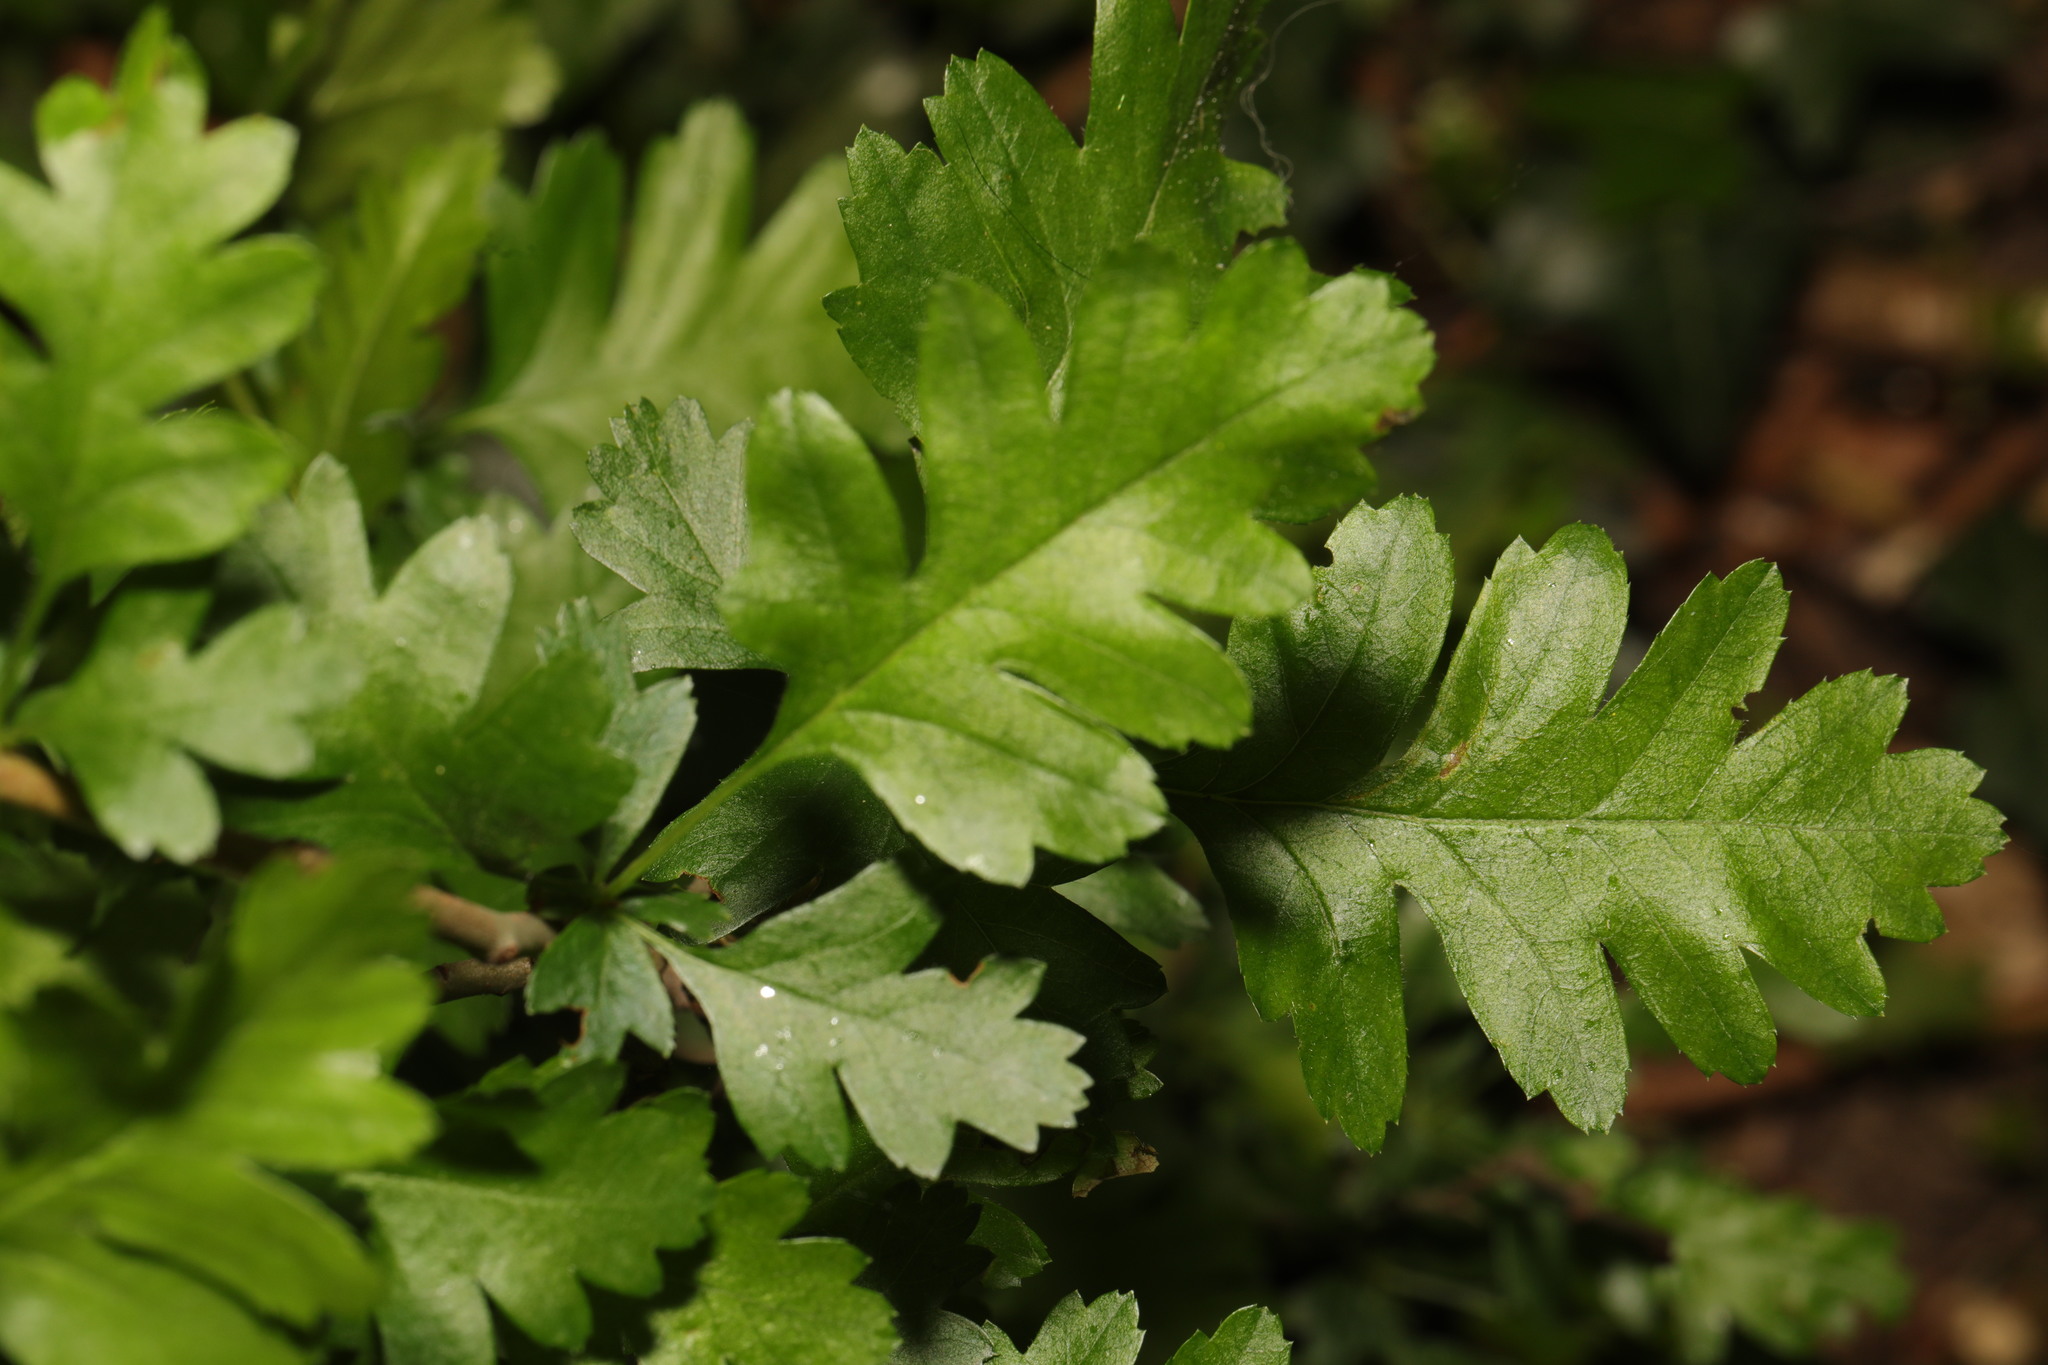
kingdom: Plantae
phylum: Tracheophyta
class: Magnoliopsida
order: Rosales
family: Rosaceae
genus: Crataegus
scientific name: Crataegus monogyna
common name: Hawthorn
